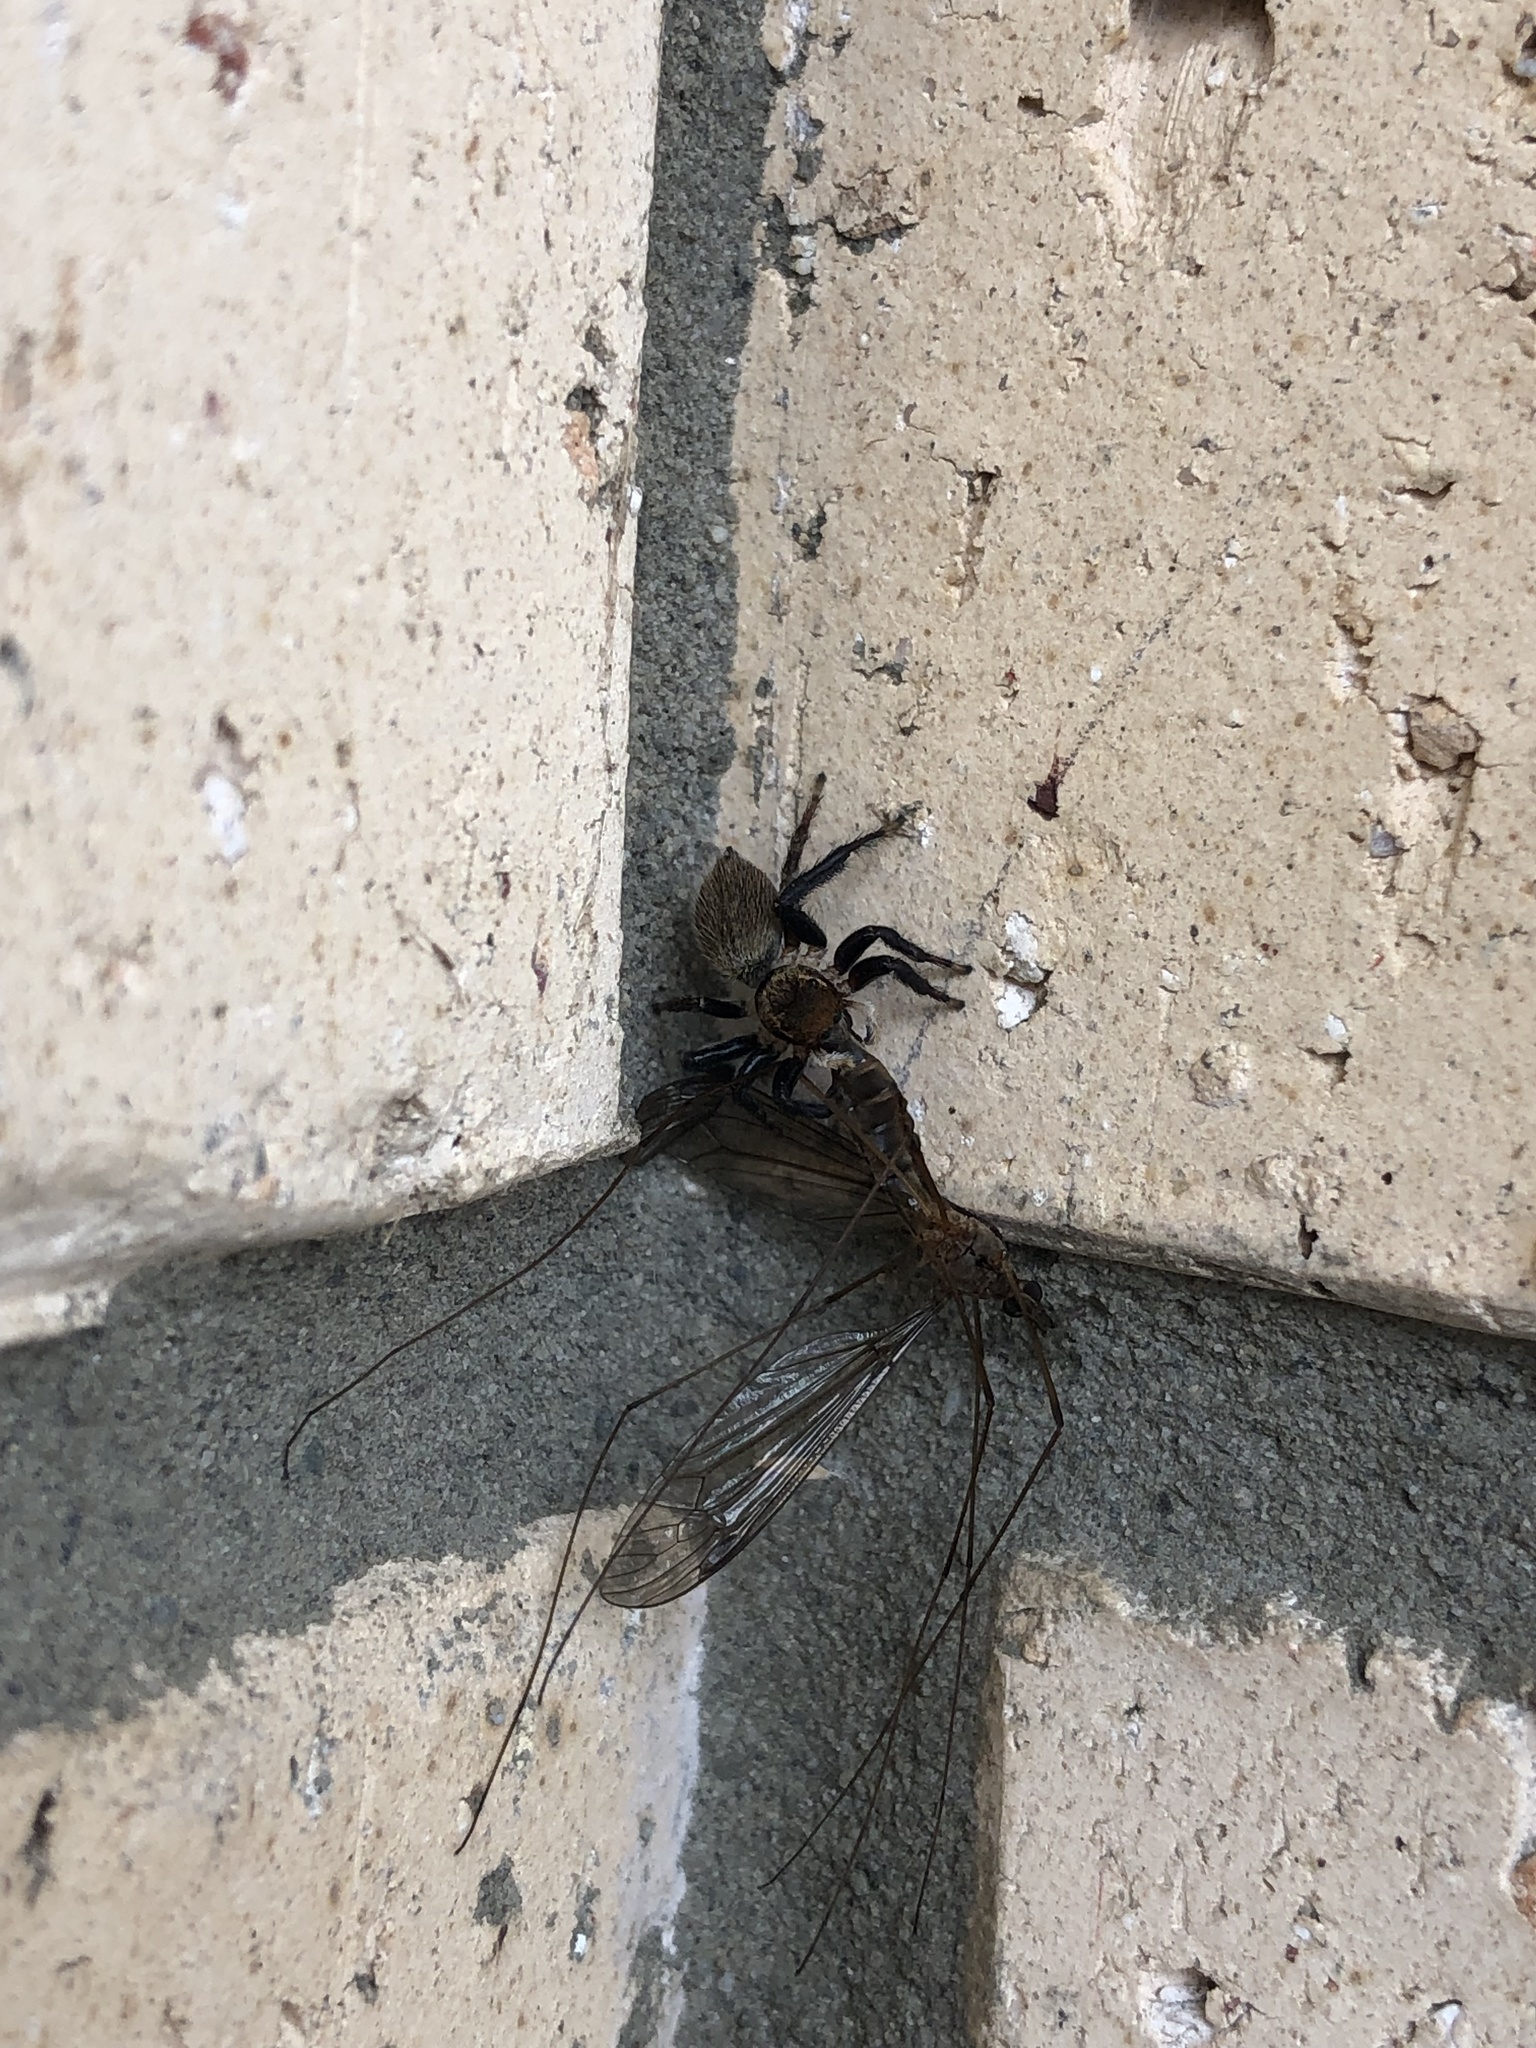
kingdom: Animalia
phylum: Arthropoda
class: Arachnida
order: Araneae
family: Salticidae
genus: Maratus
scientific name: Maratus griseus
